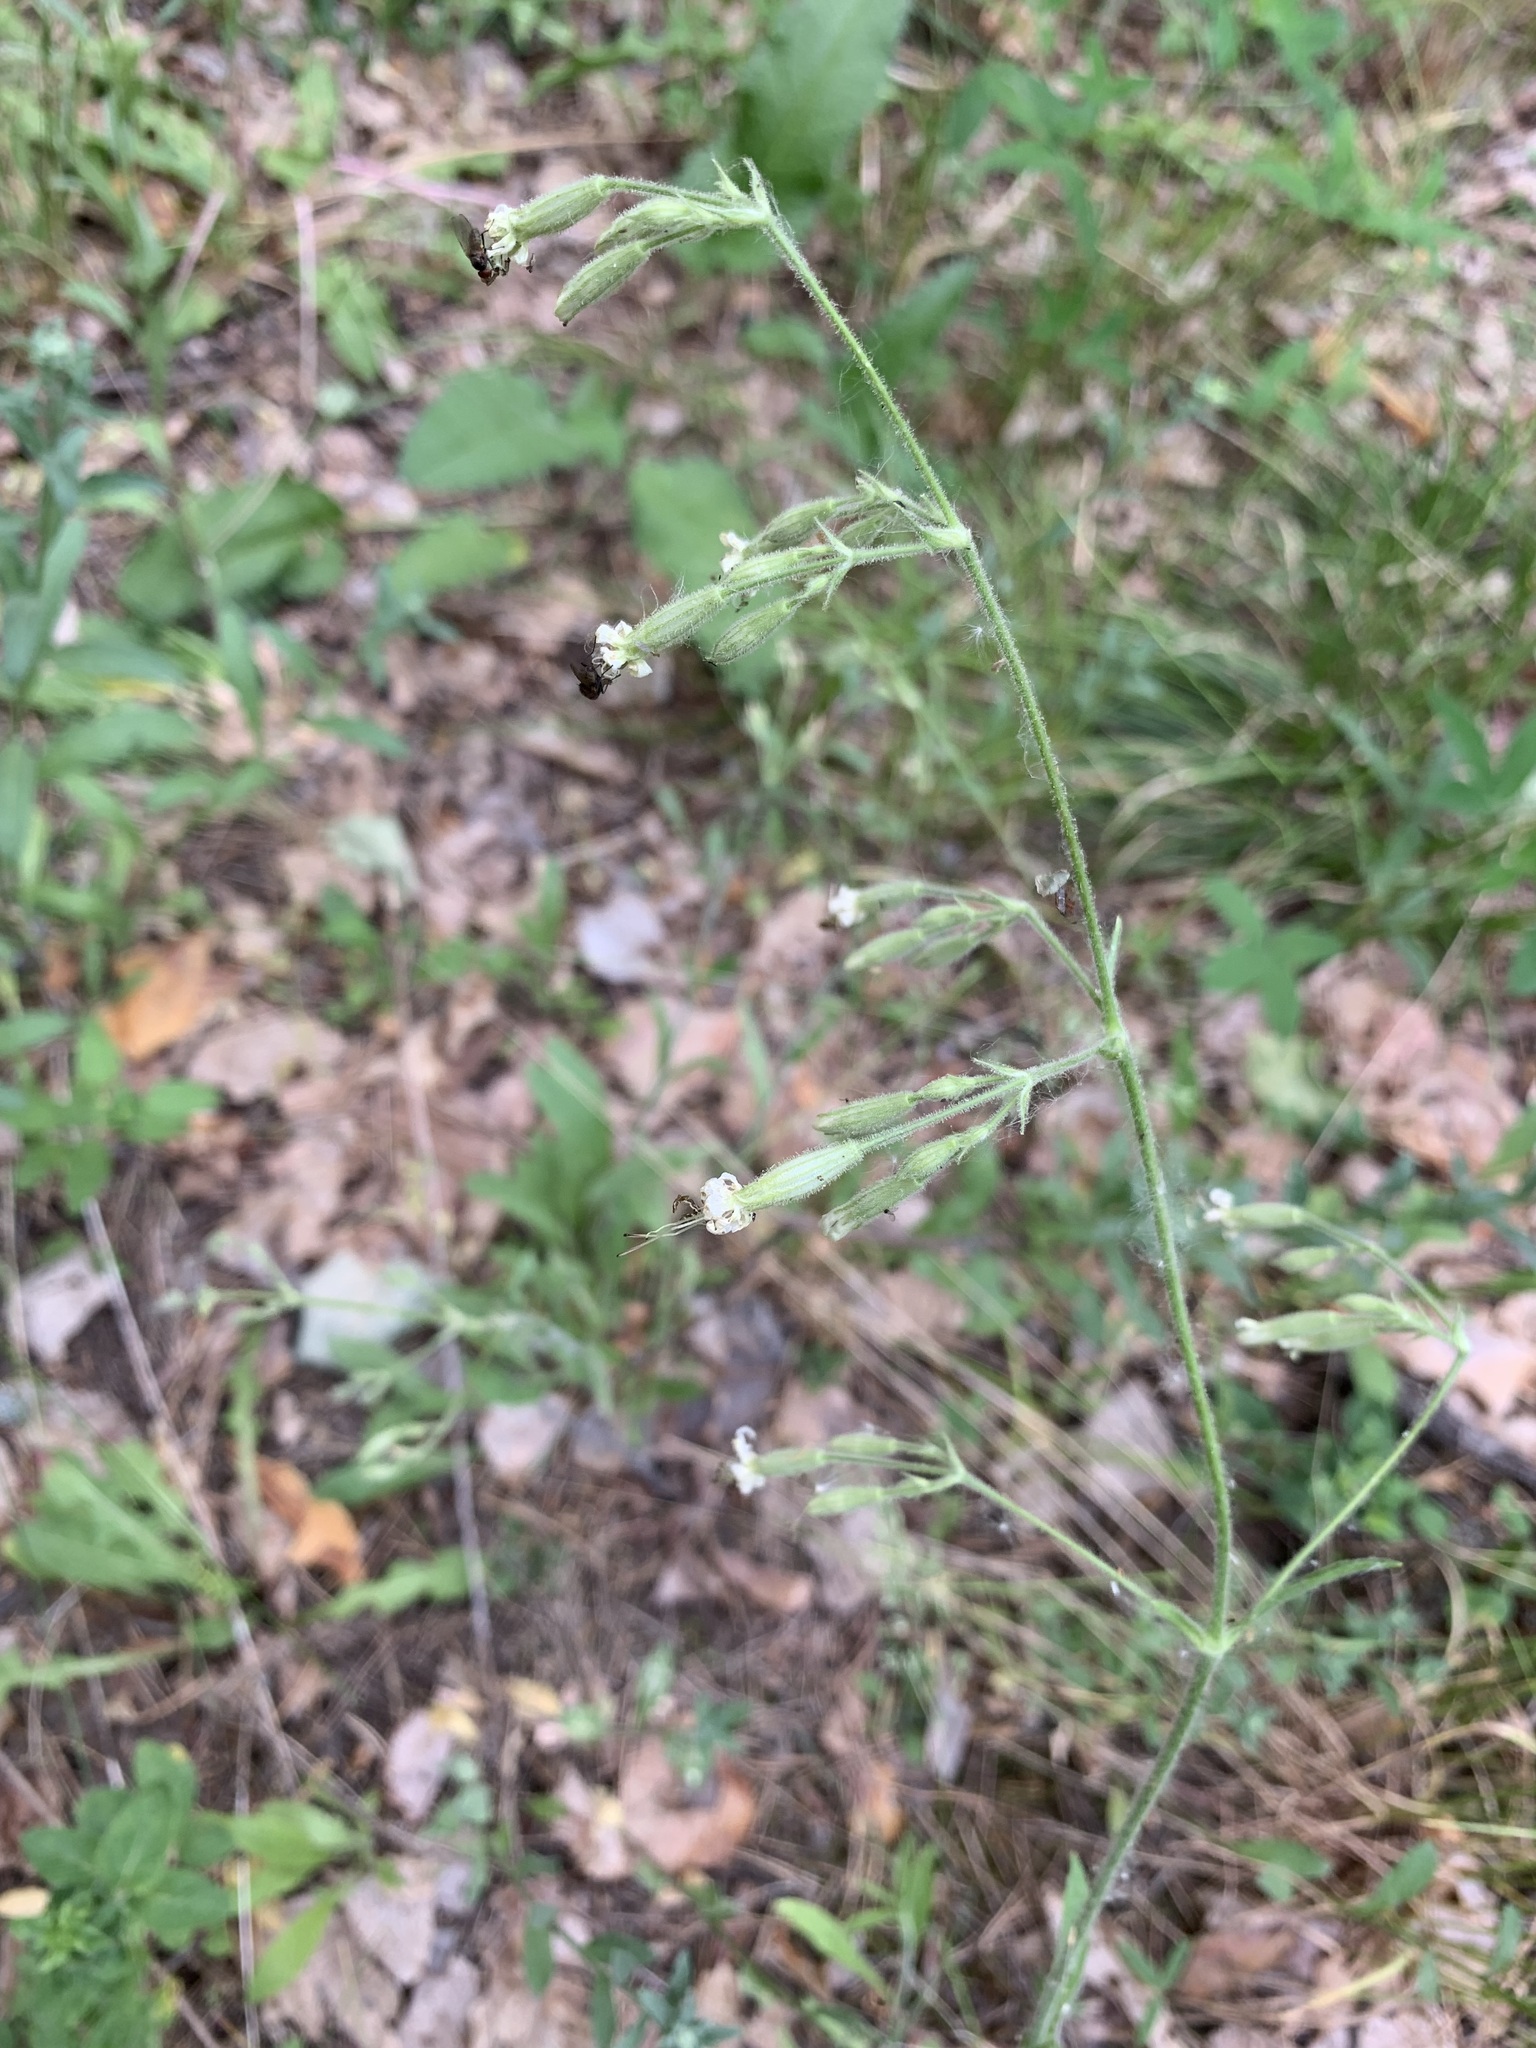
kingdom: Plantae
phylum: Tracheophyta
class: Magnoliopsida
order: Caryophyllales
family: Caryophyllaceae
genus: Silene
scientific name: Silene nutans
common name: Nottingham catchfly
